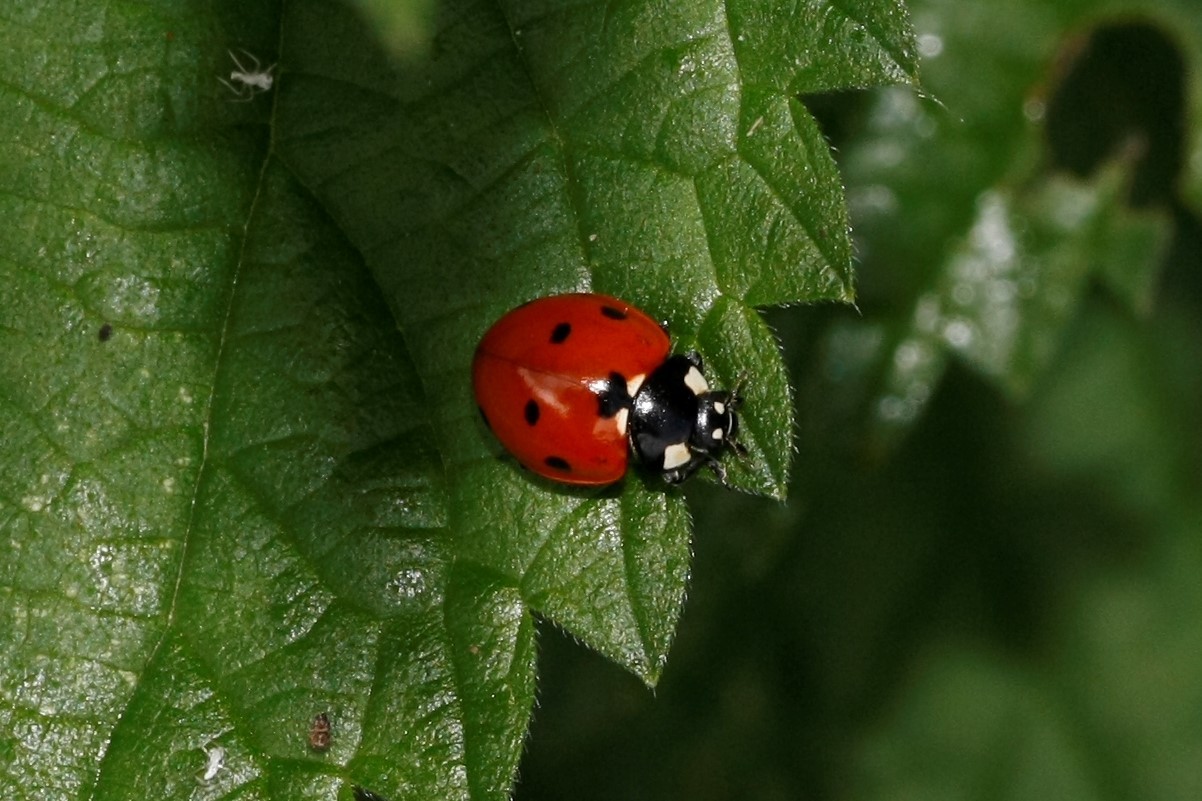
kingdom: Animalia
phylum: Arthropoda
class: Insecta
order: Coleoptera
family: Coccinellidae
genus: Coccinella
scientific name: Coccinella septempunctata
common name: Sevenspotted lady beetle
